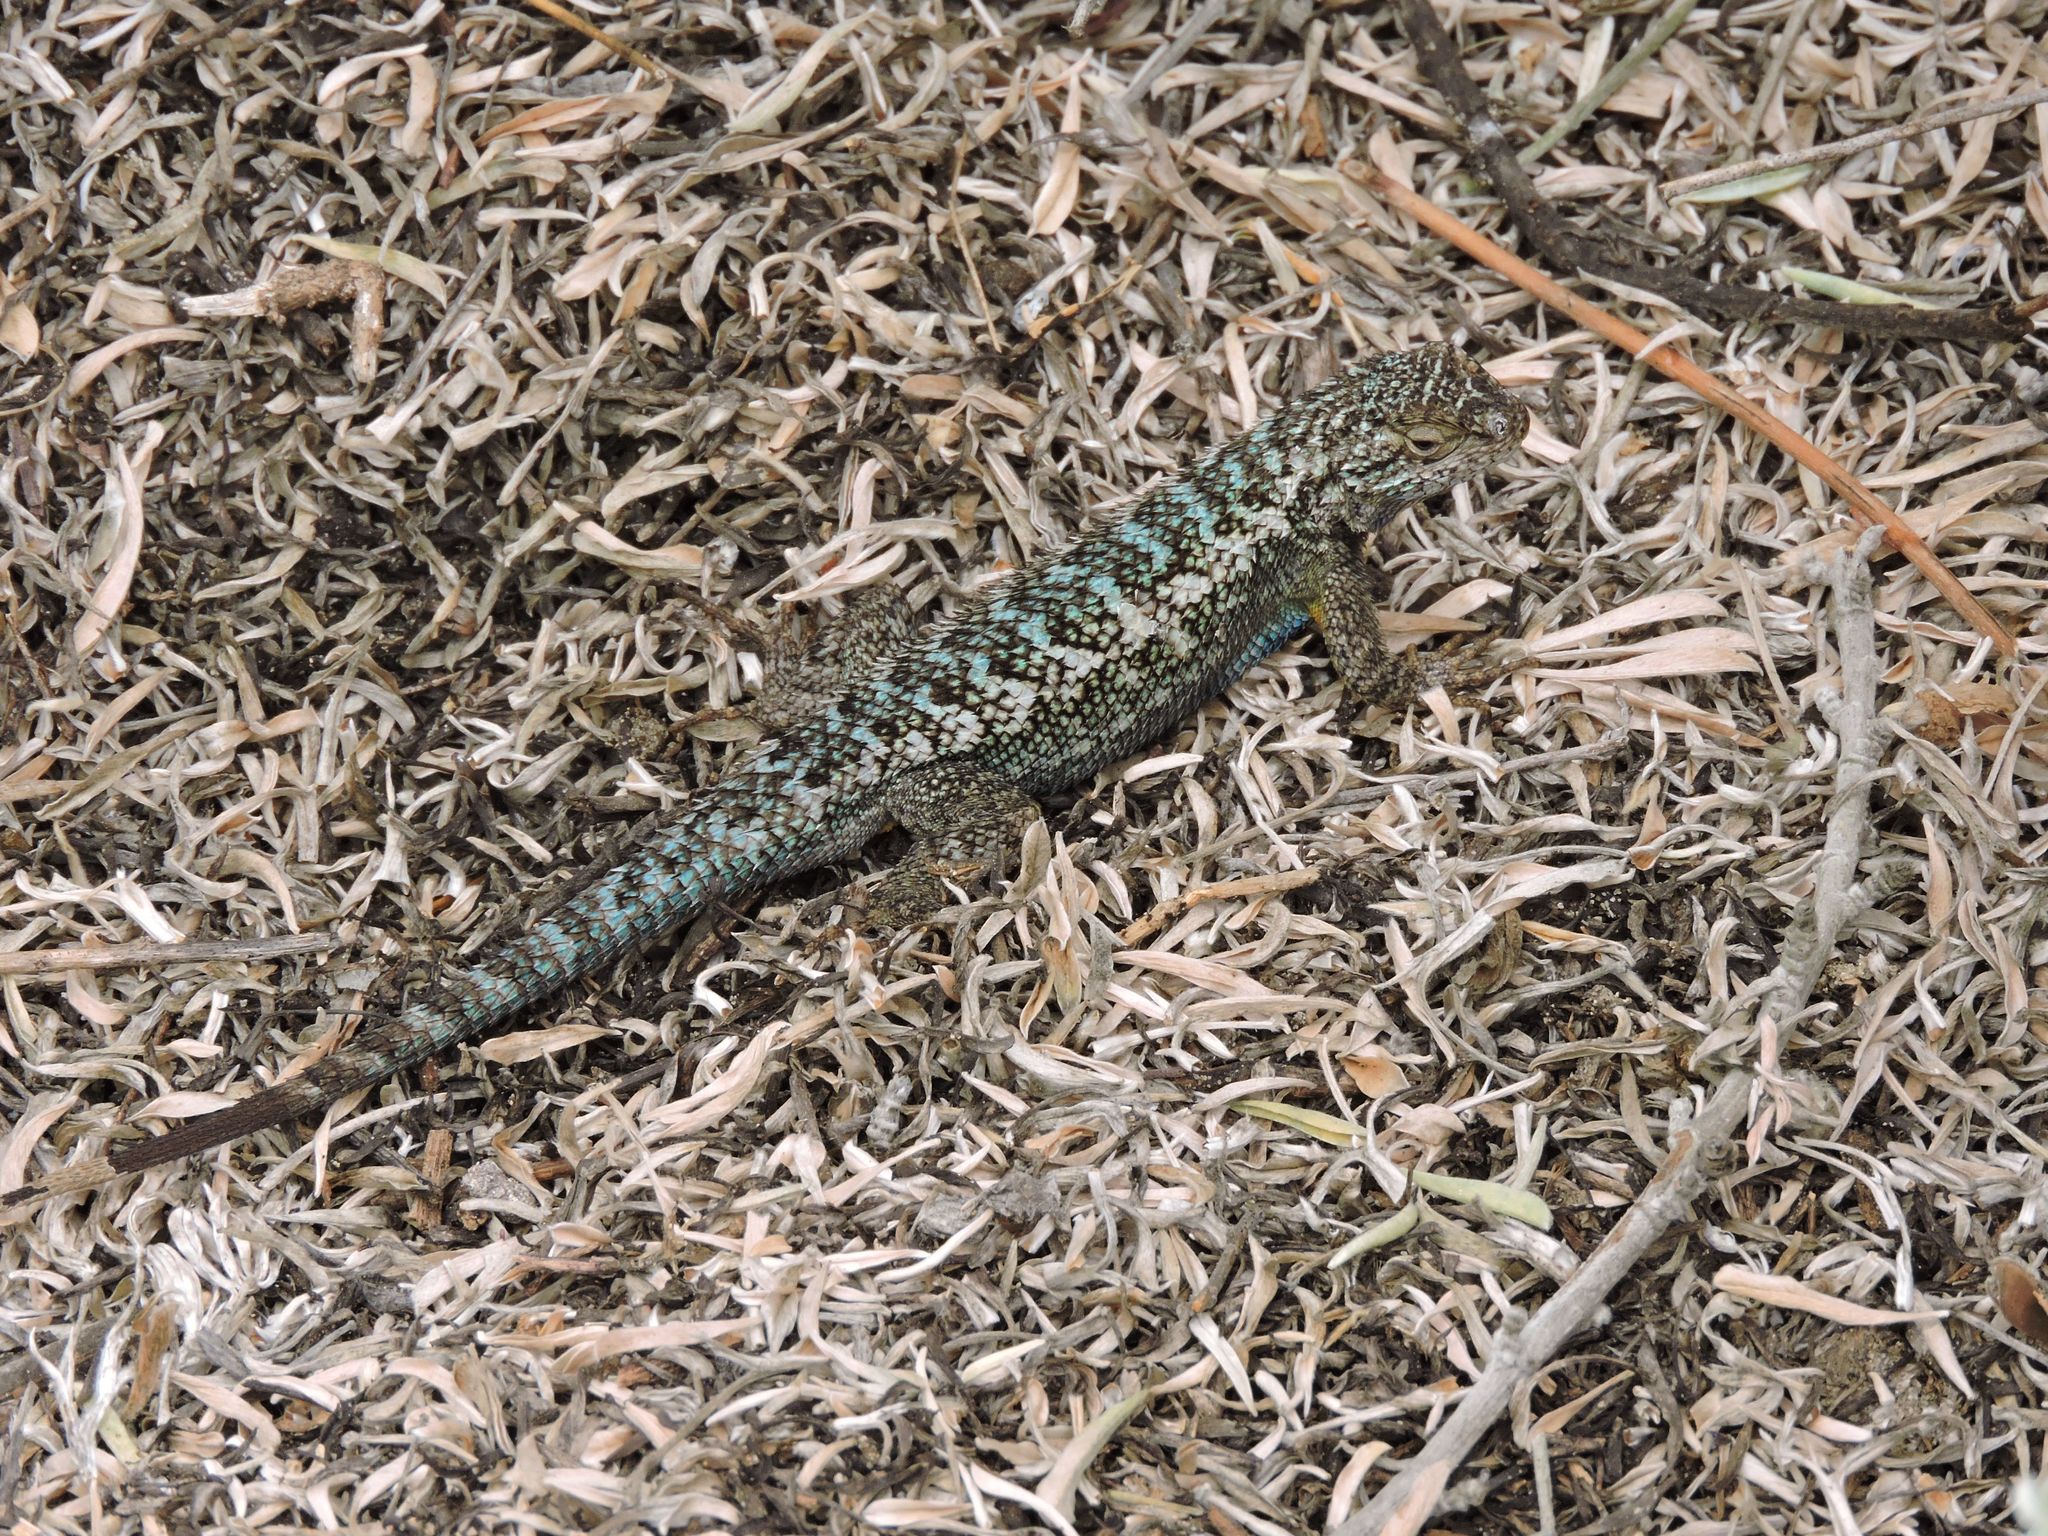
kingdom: Animalia
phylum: Chordata
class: Squamata
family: Phrynosomatidae
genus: Sceloporus
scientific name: Sceloporus occidentalis
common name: Western fence lizard
